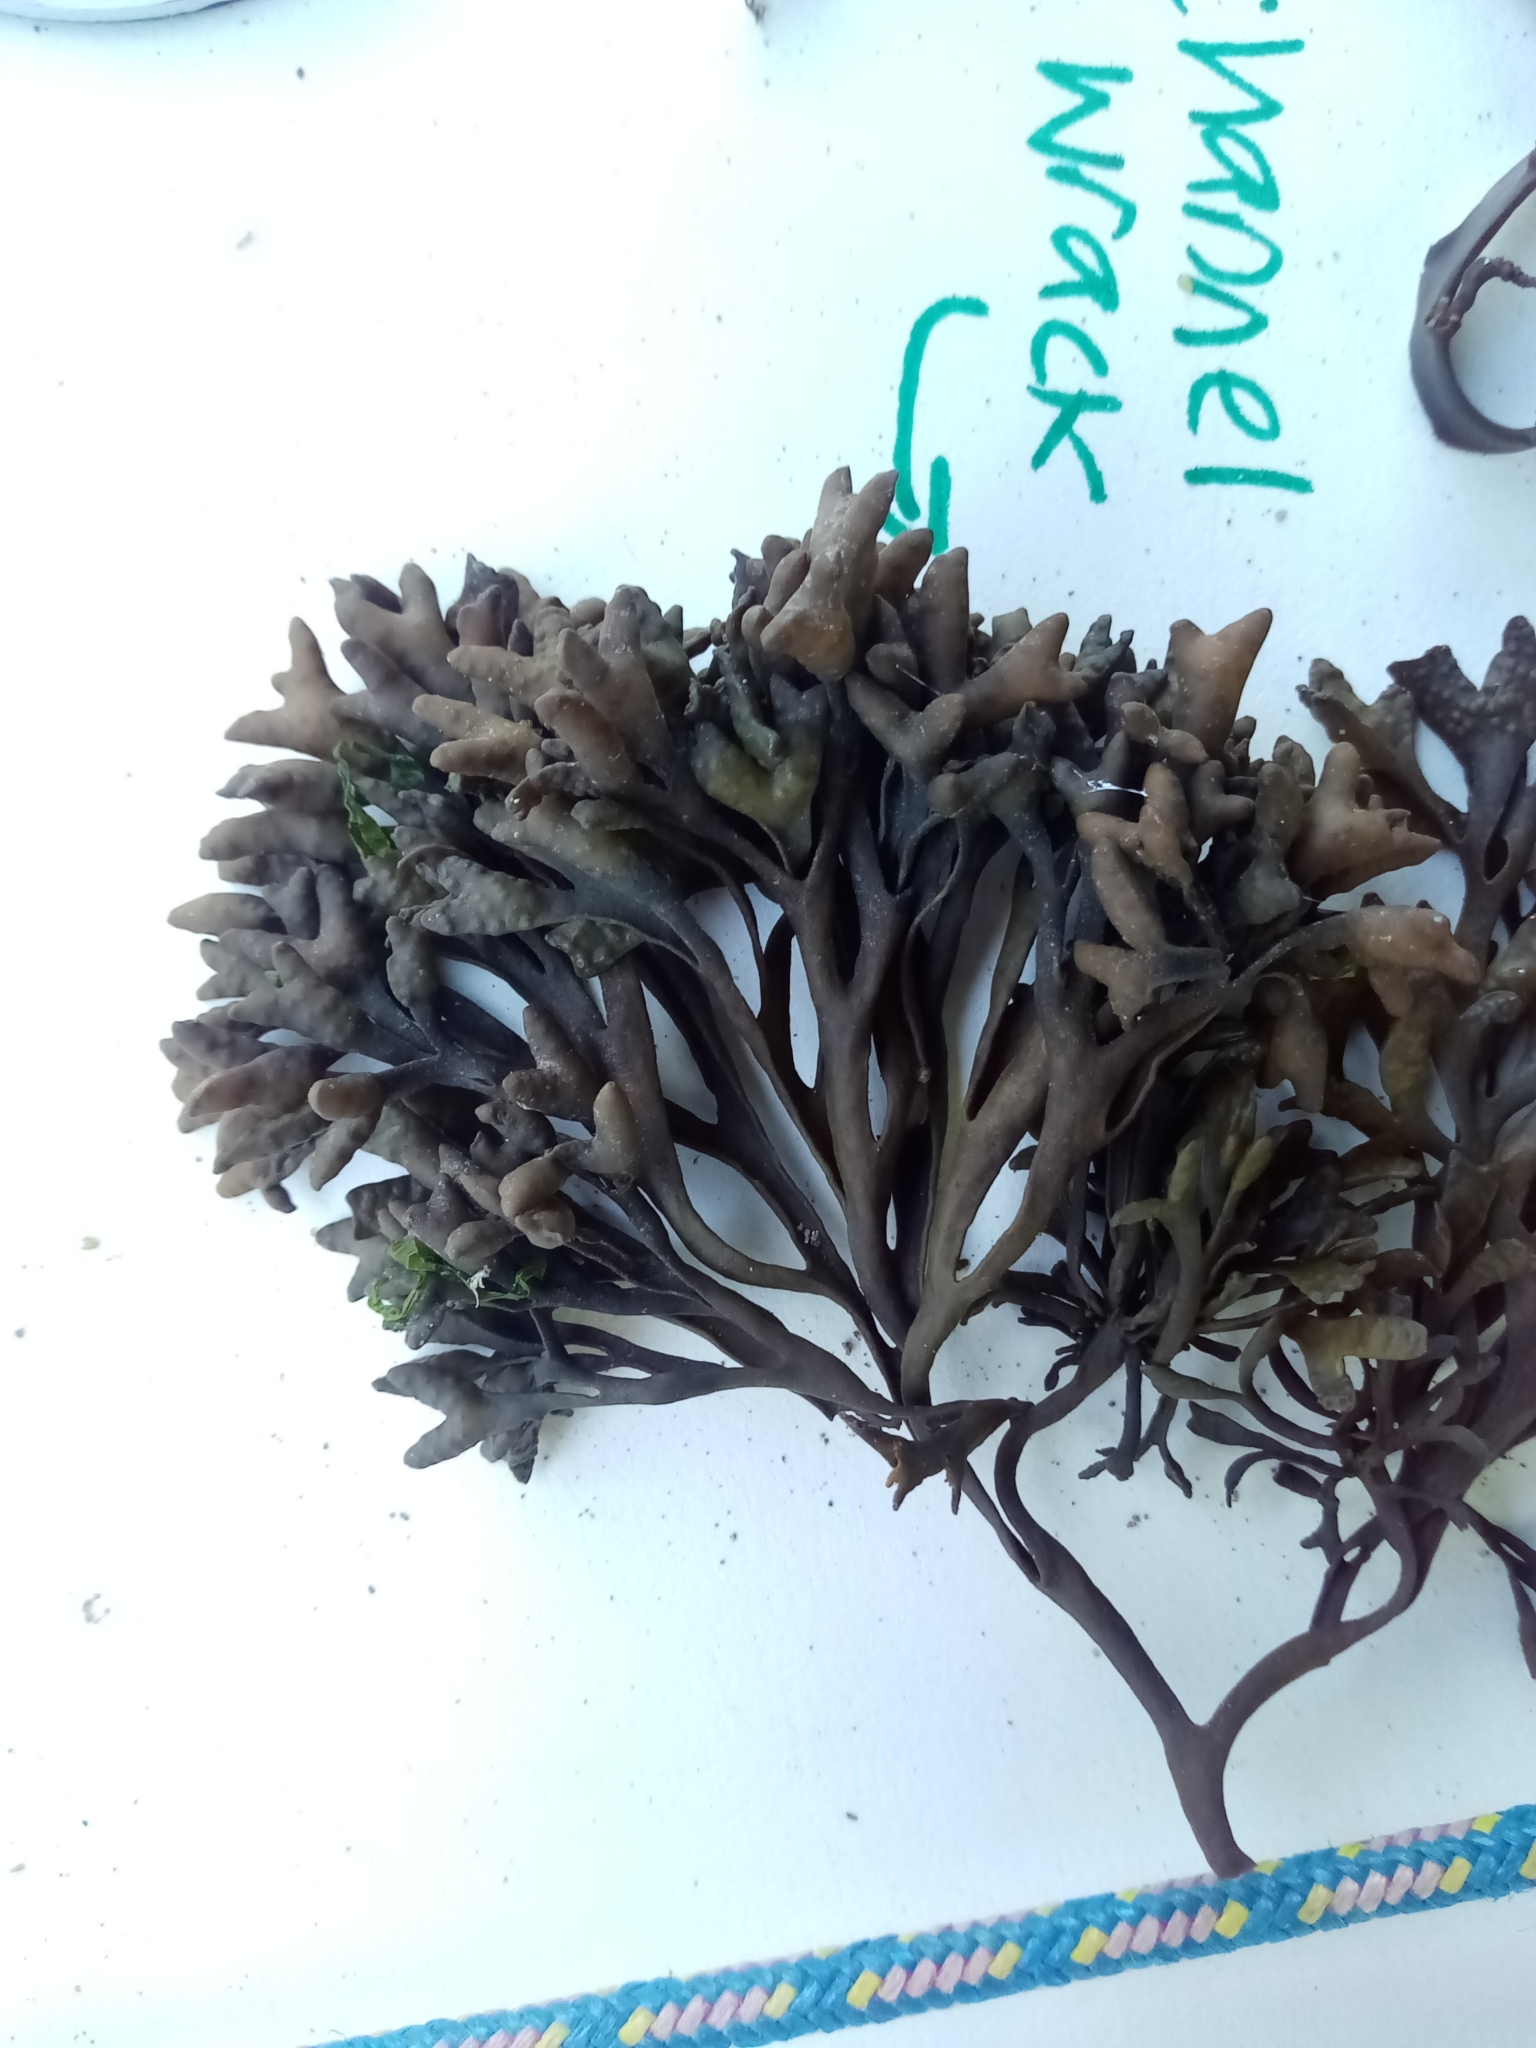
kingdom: Chromista
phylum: Ochrophyta
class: Phaeophyceae
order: Fucales
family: Fucaceae
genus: Pelvetia
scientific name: Pelvetia canaliculata
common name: Channelled wrack
